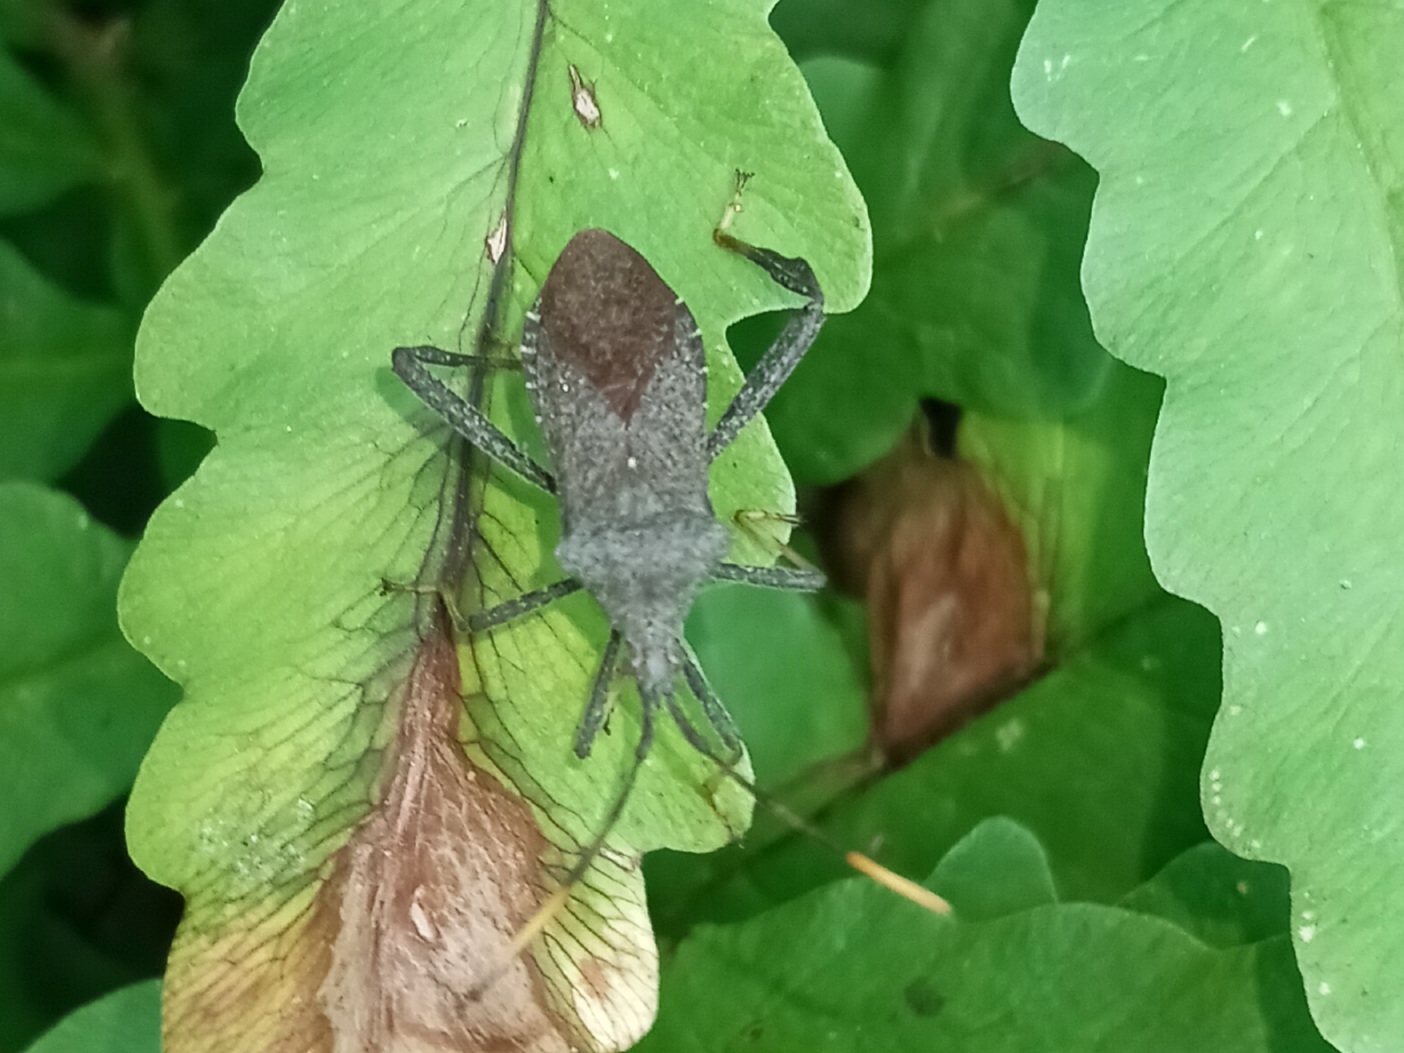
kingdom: Animalia
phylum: Arthropoda
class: Insecta
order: Hemiptera
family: Coreidae
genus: Acanthocephala
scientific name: Acanthocephala terminalis
